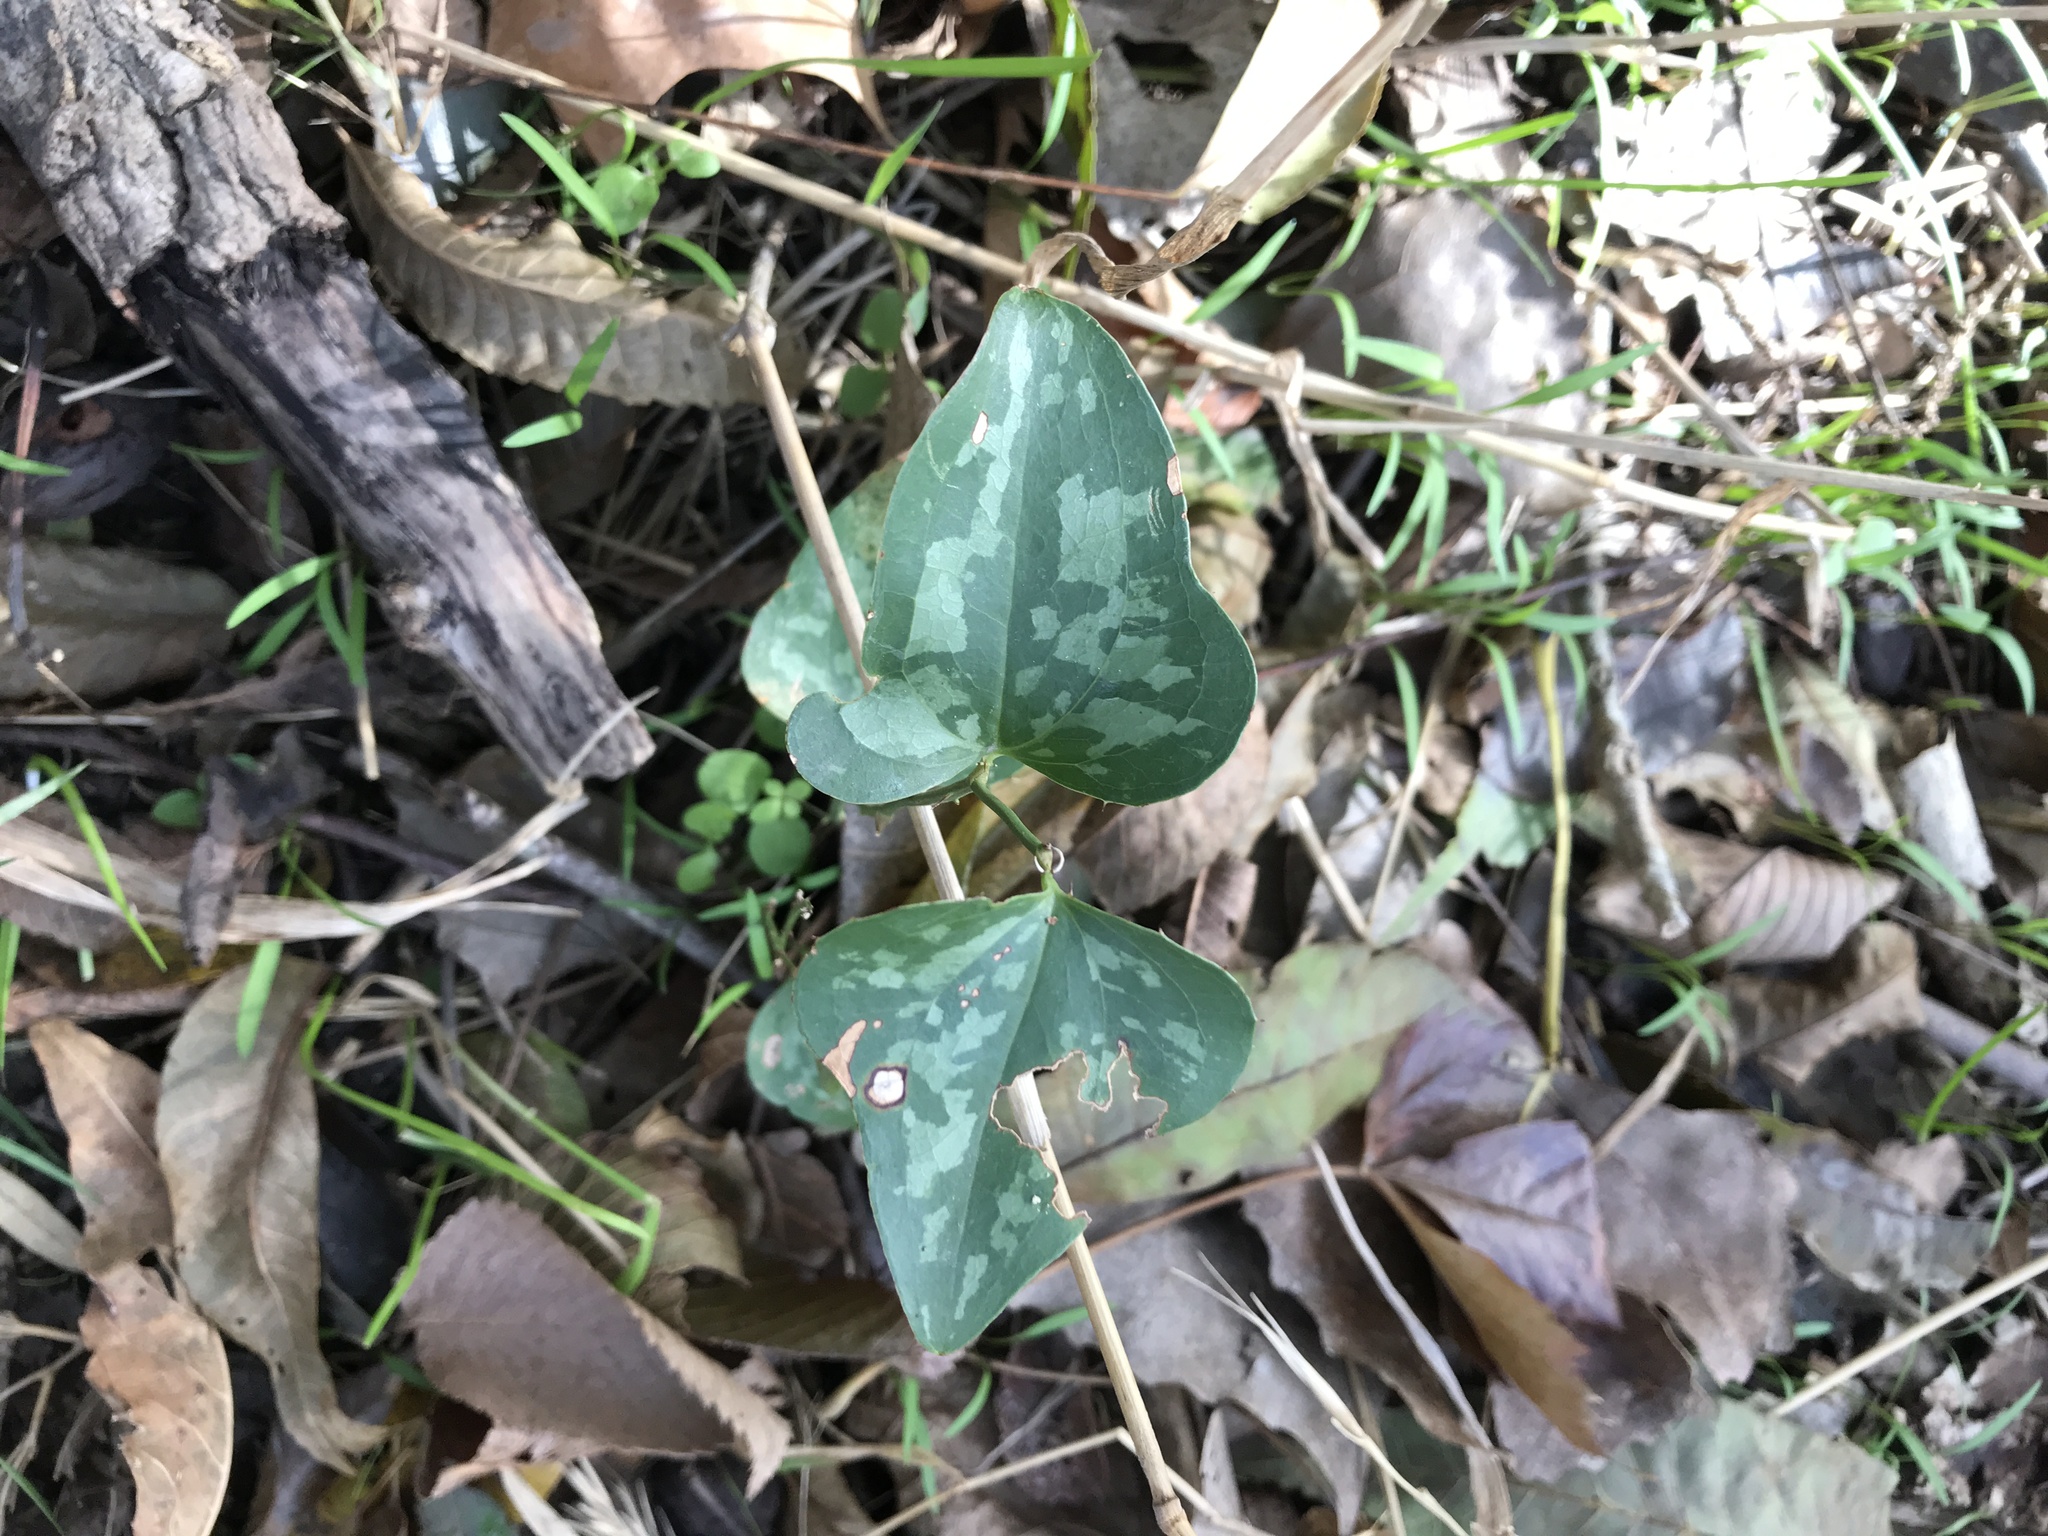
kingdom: Plantae
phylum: Tracheophyta
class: Liliopsida
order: Liliales
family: Smilacaceae
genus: Smilax
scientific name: Smilax bona-nox
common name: Catbrier
